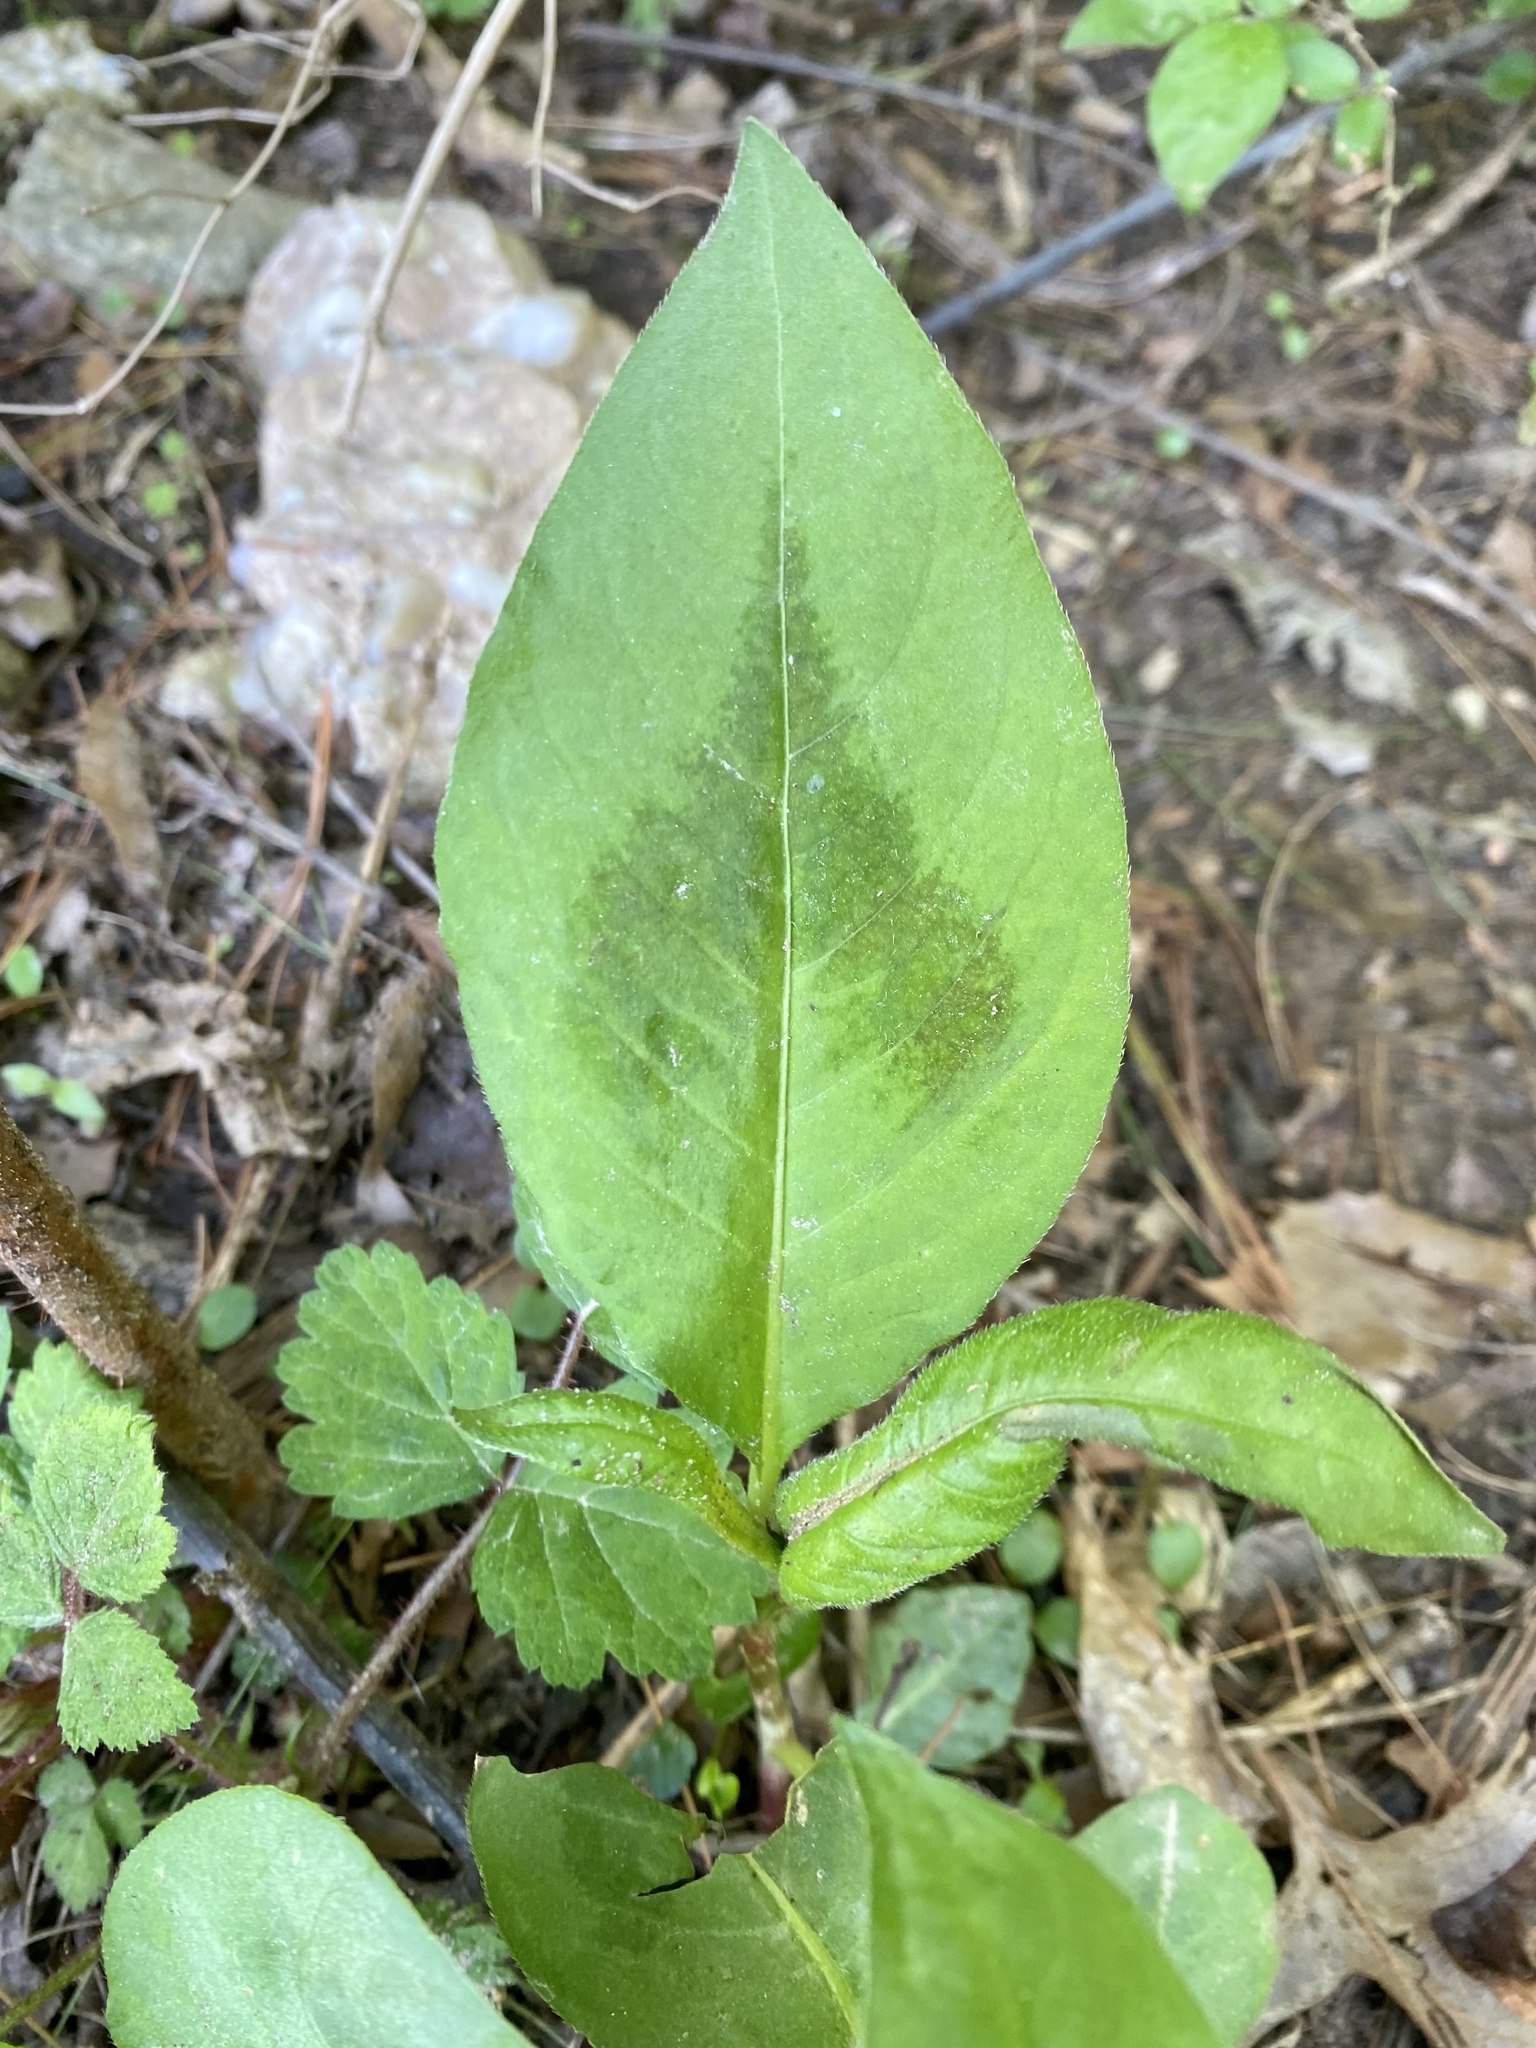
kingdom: Plantae
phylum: Tracheophyta
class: Magnoliopsida
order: Caryophyllales
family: Polygonaceae
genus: Persicaria
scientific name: Persicaria virginiana
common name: Jumpseed
